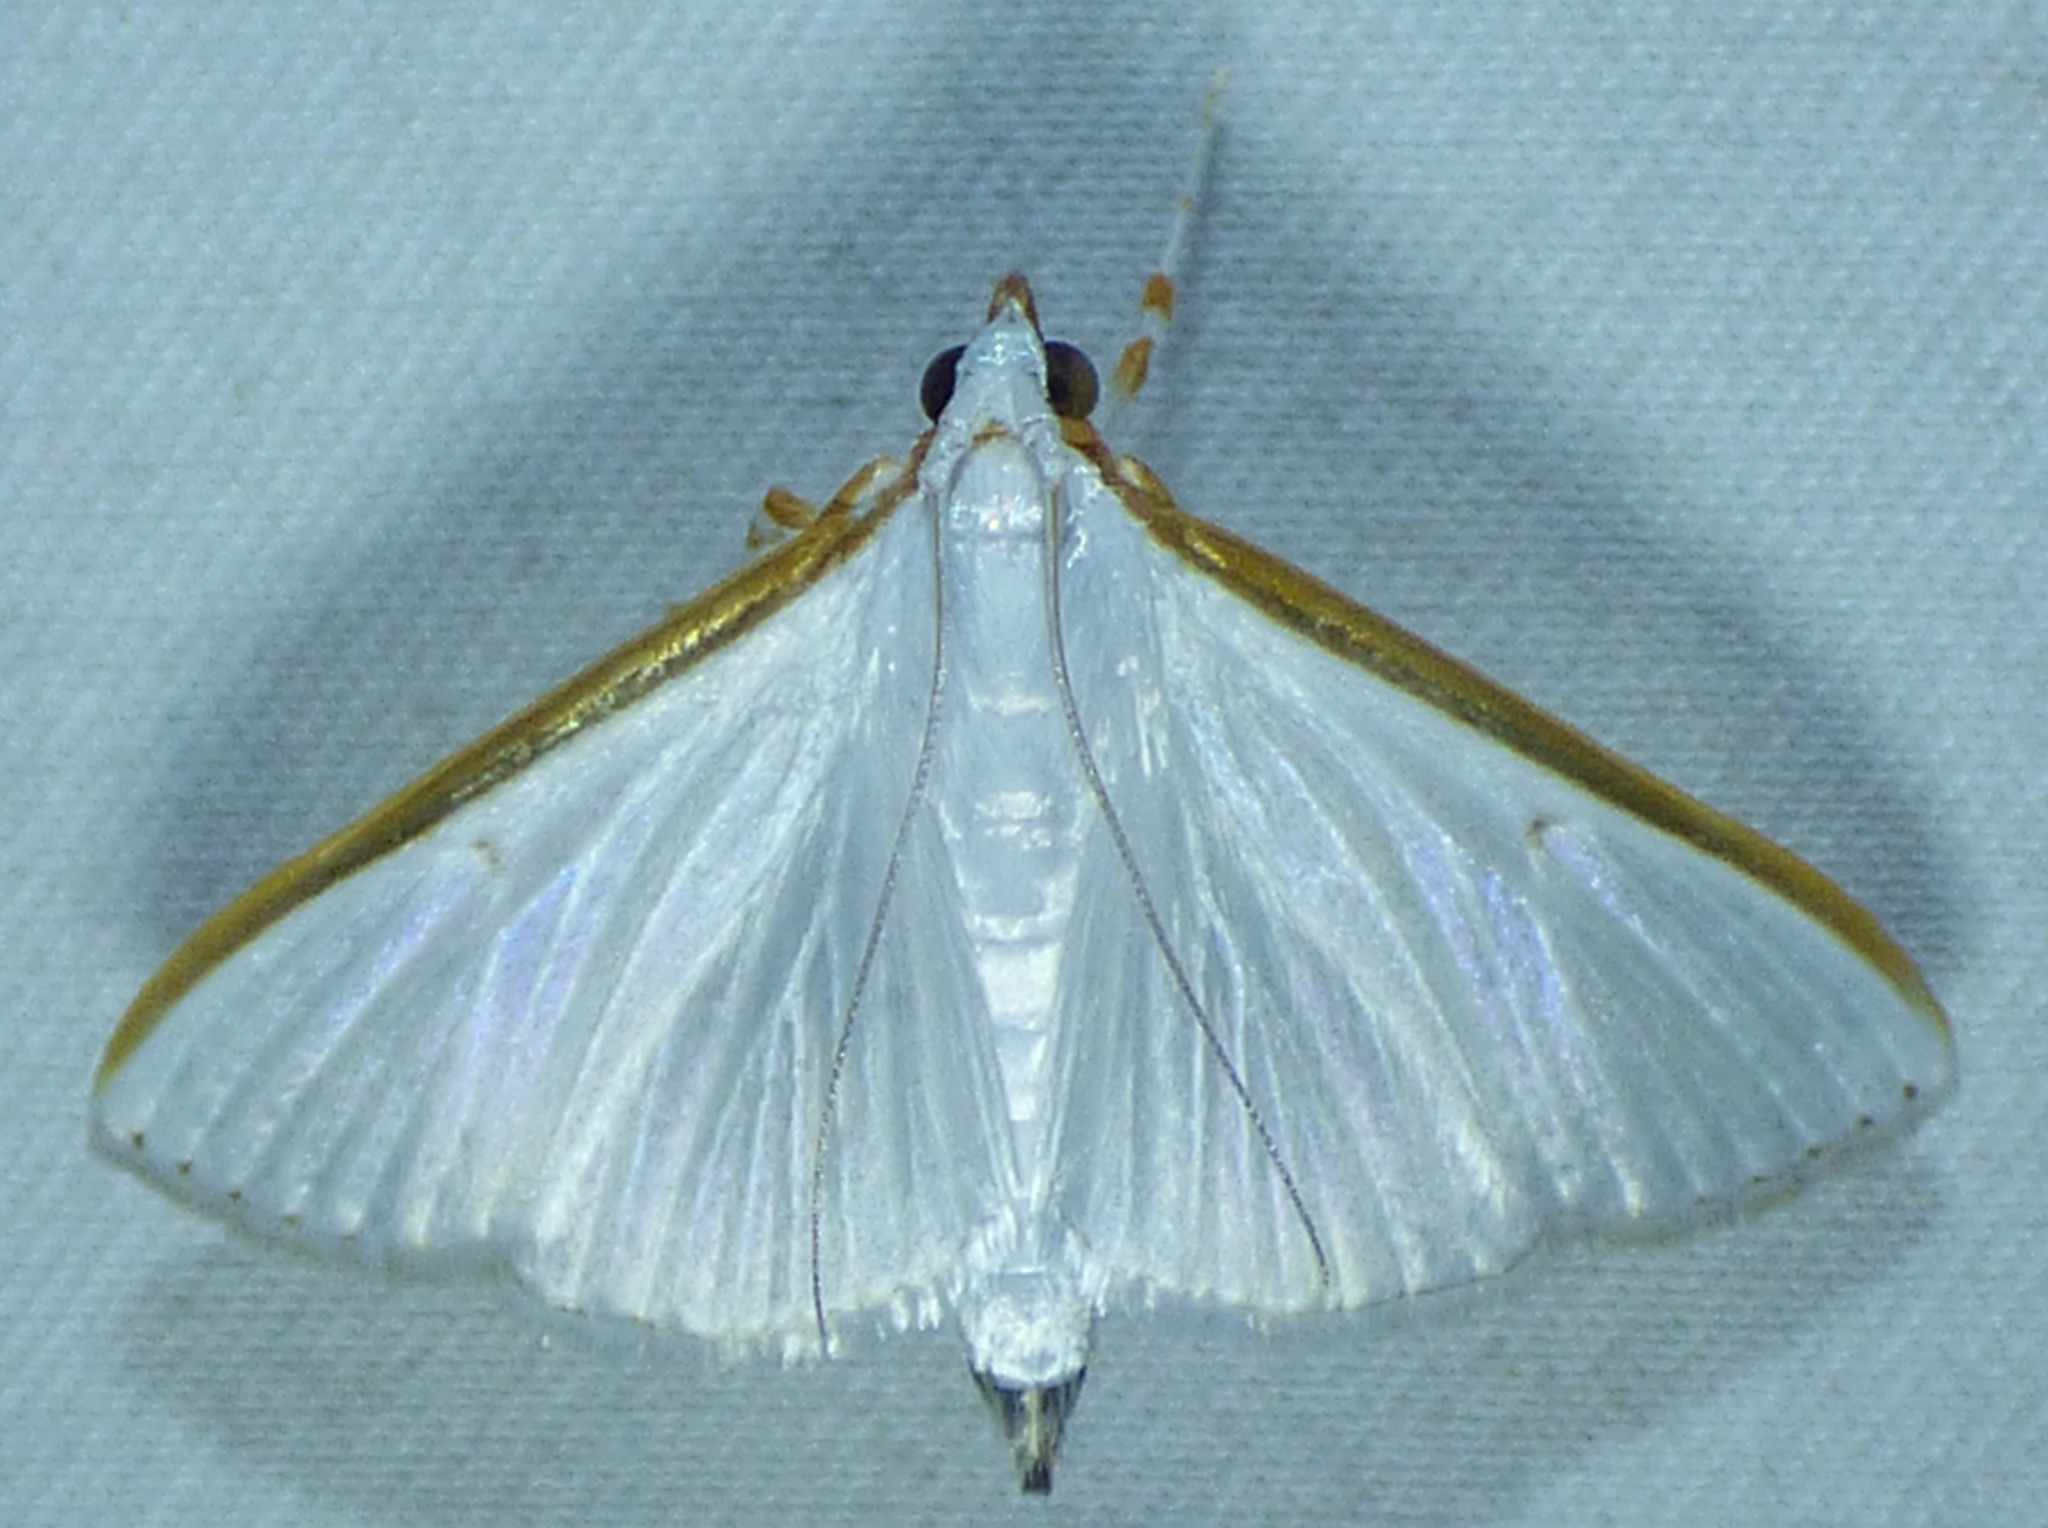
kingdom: Animalia
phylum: Arthropoda
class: Insecta
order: Lepidoptera
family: Crambidae
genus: Diaphania
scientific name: Diaphania costata
